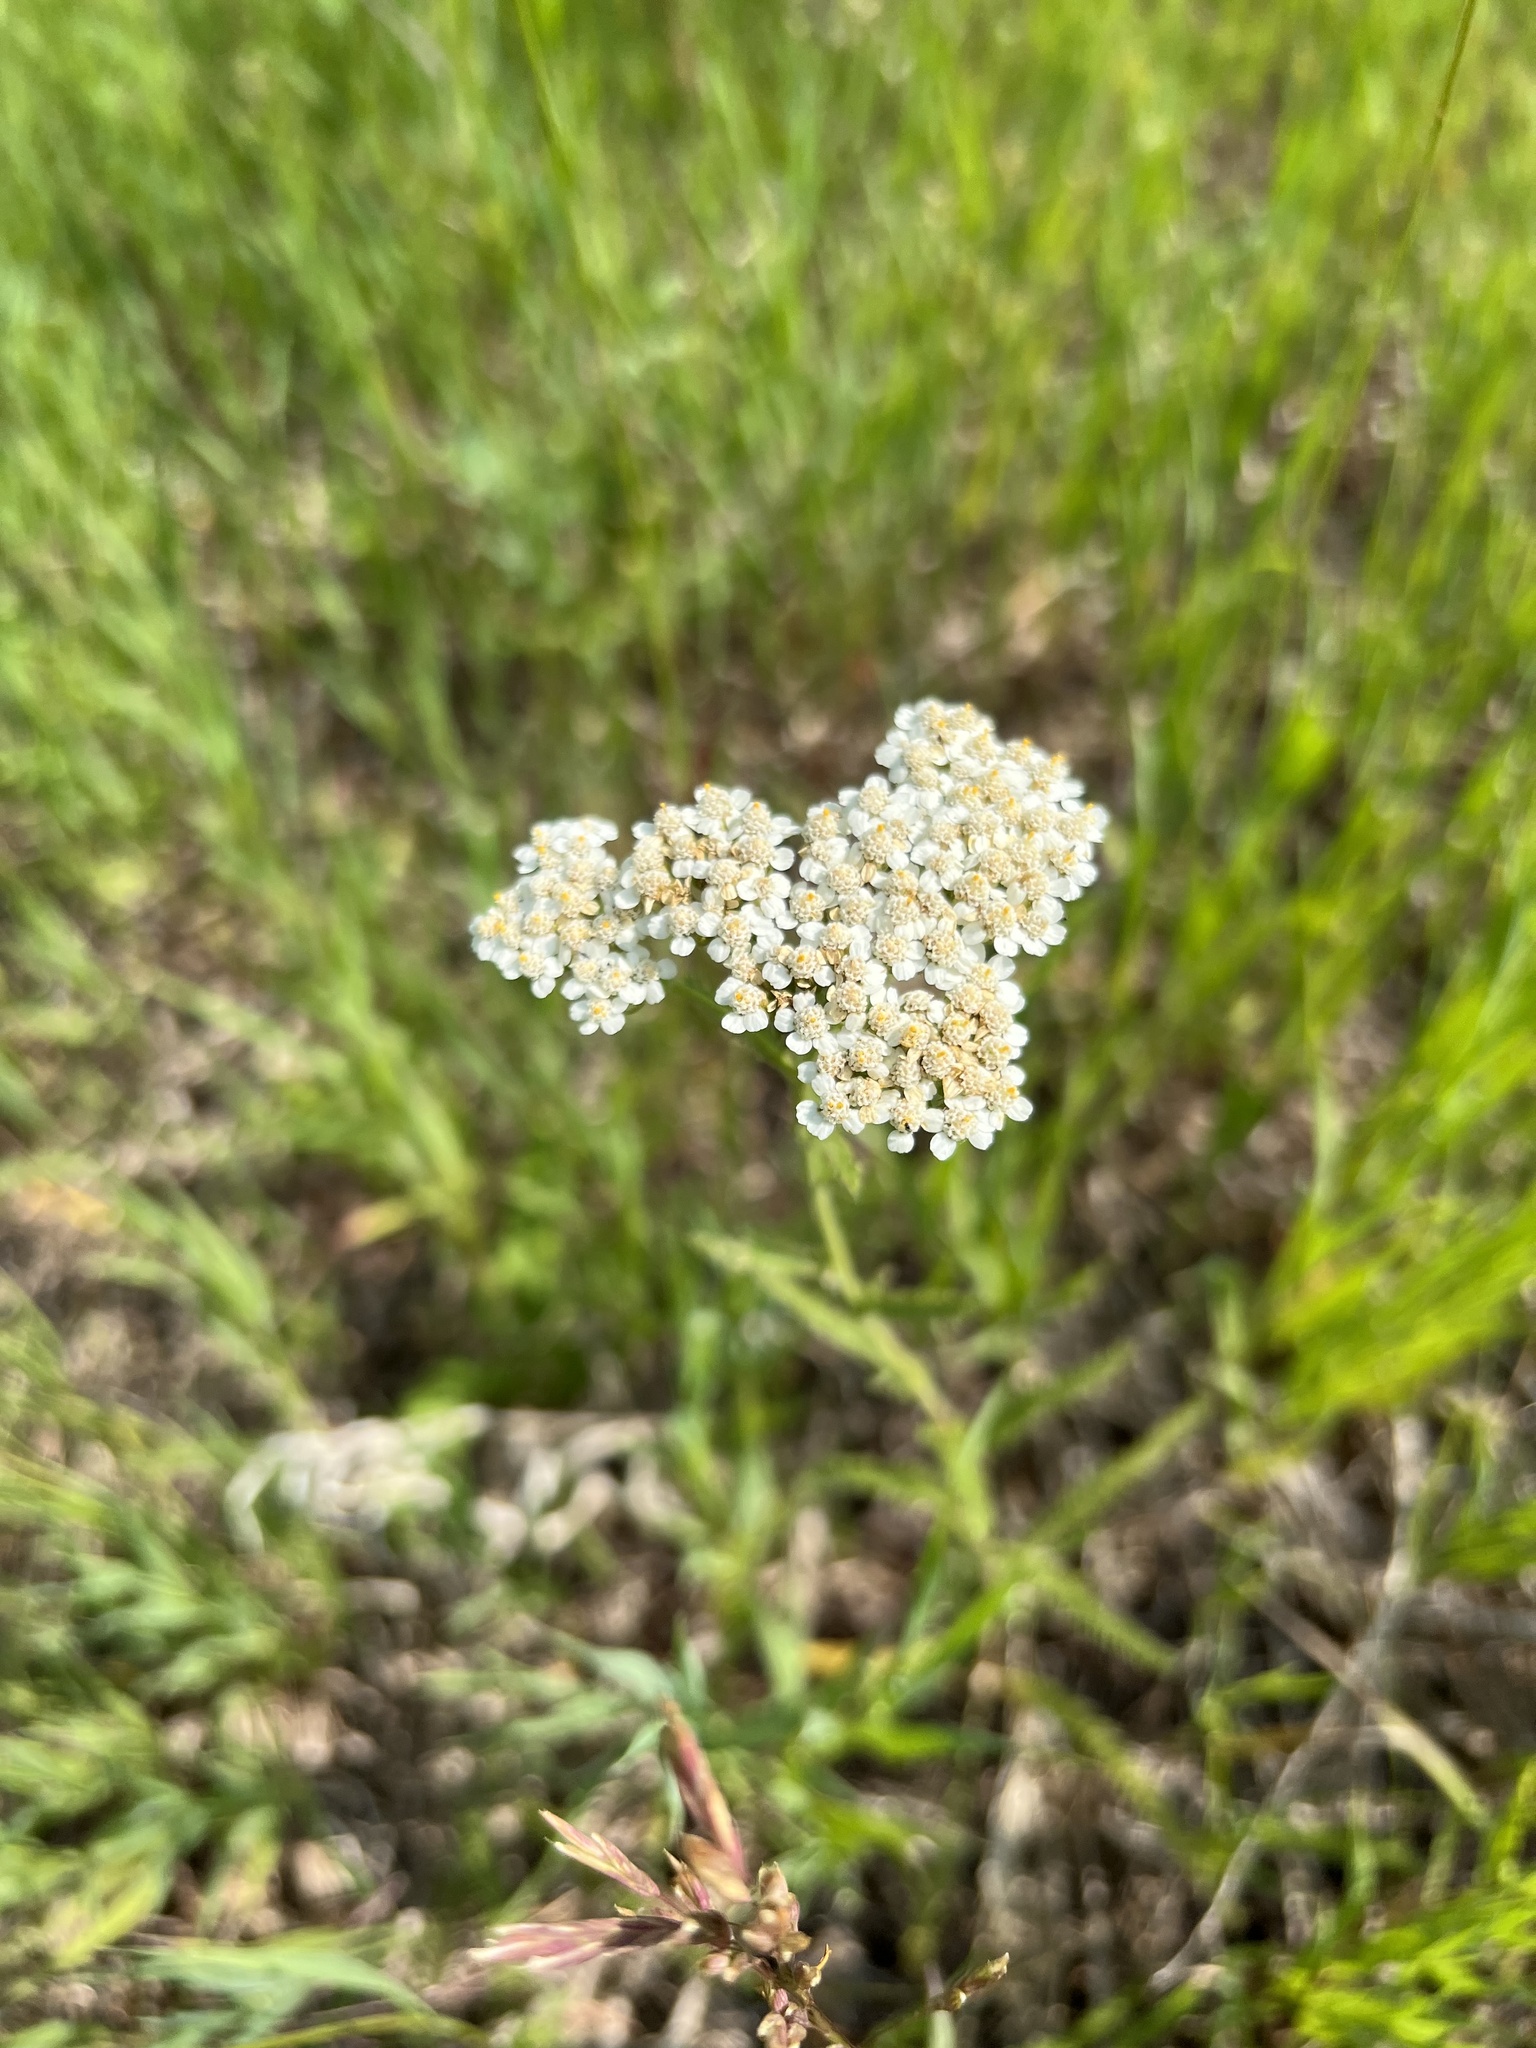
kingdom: Plantae
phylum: Tracheophyta
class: Magnoliopsida
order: Asterales
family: Asteraceae
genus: Achillea
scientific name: Achillea millefolium
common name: Yarrow
